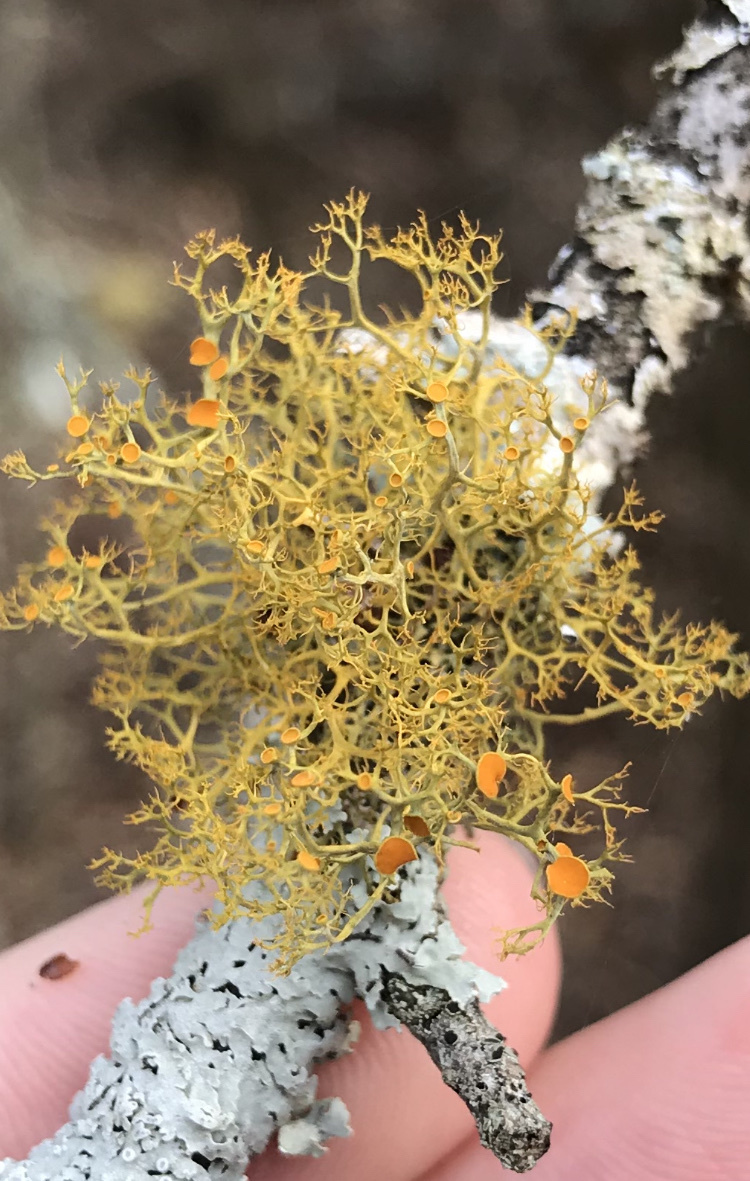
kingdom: Fungi
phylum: Ascomycota
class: Lecanoromycetes
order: Teloschistales
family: Teloschistaceae
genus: Teloschistes
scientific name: Teloschistes exilis
